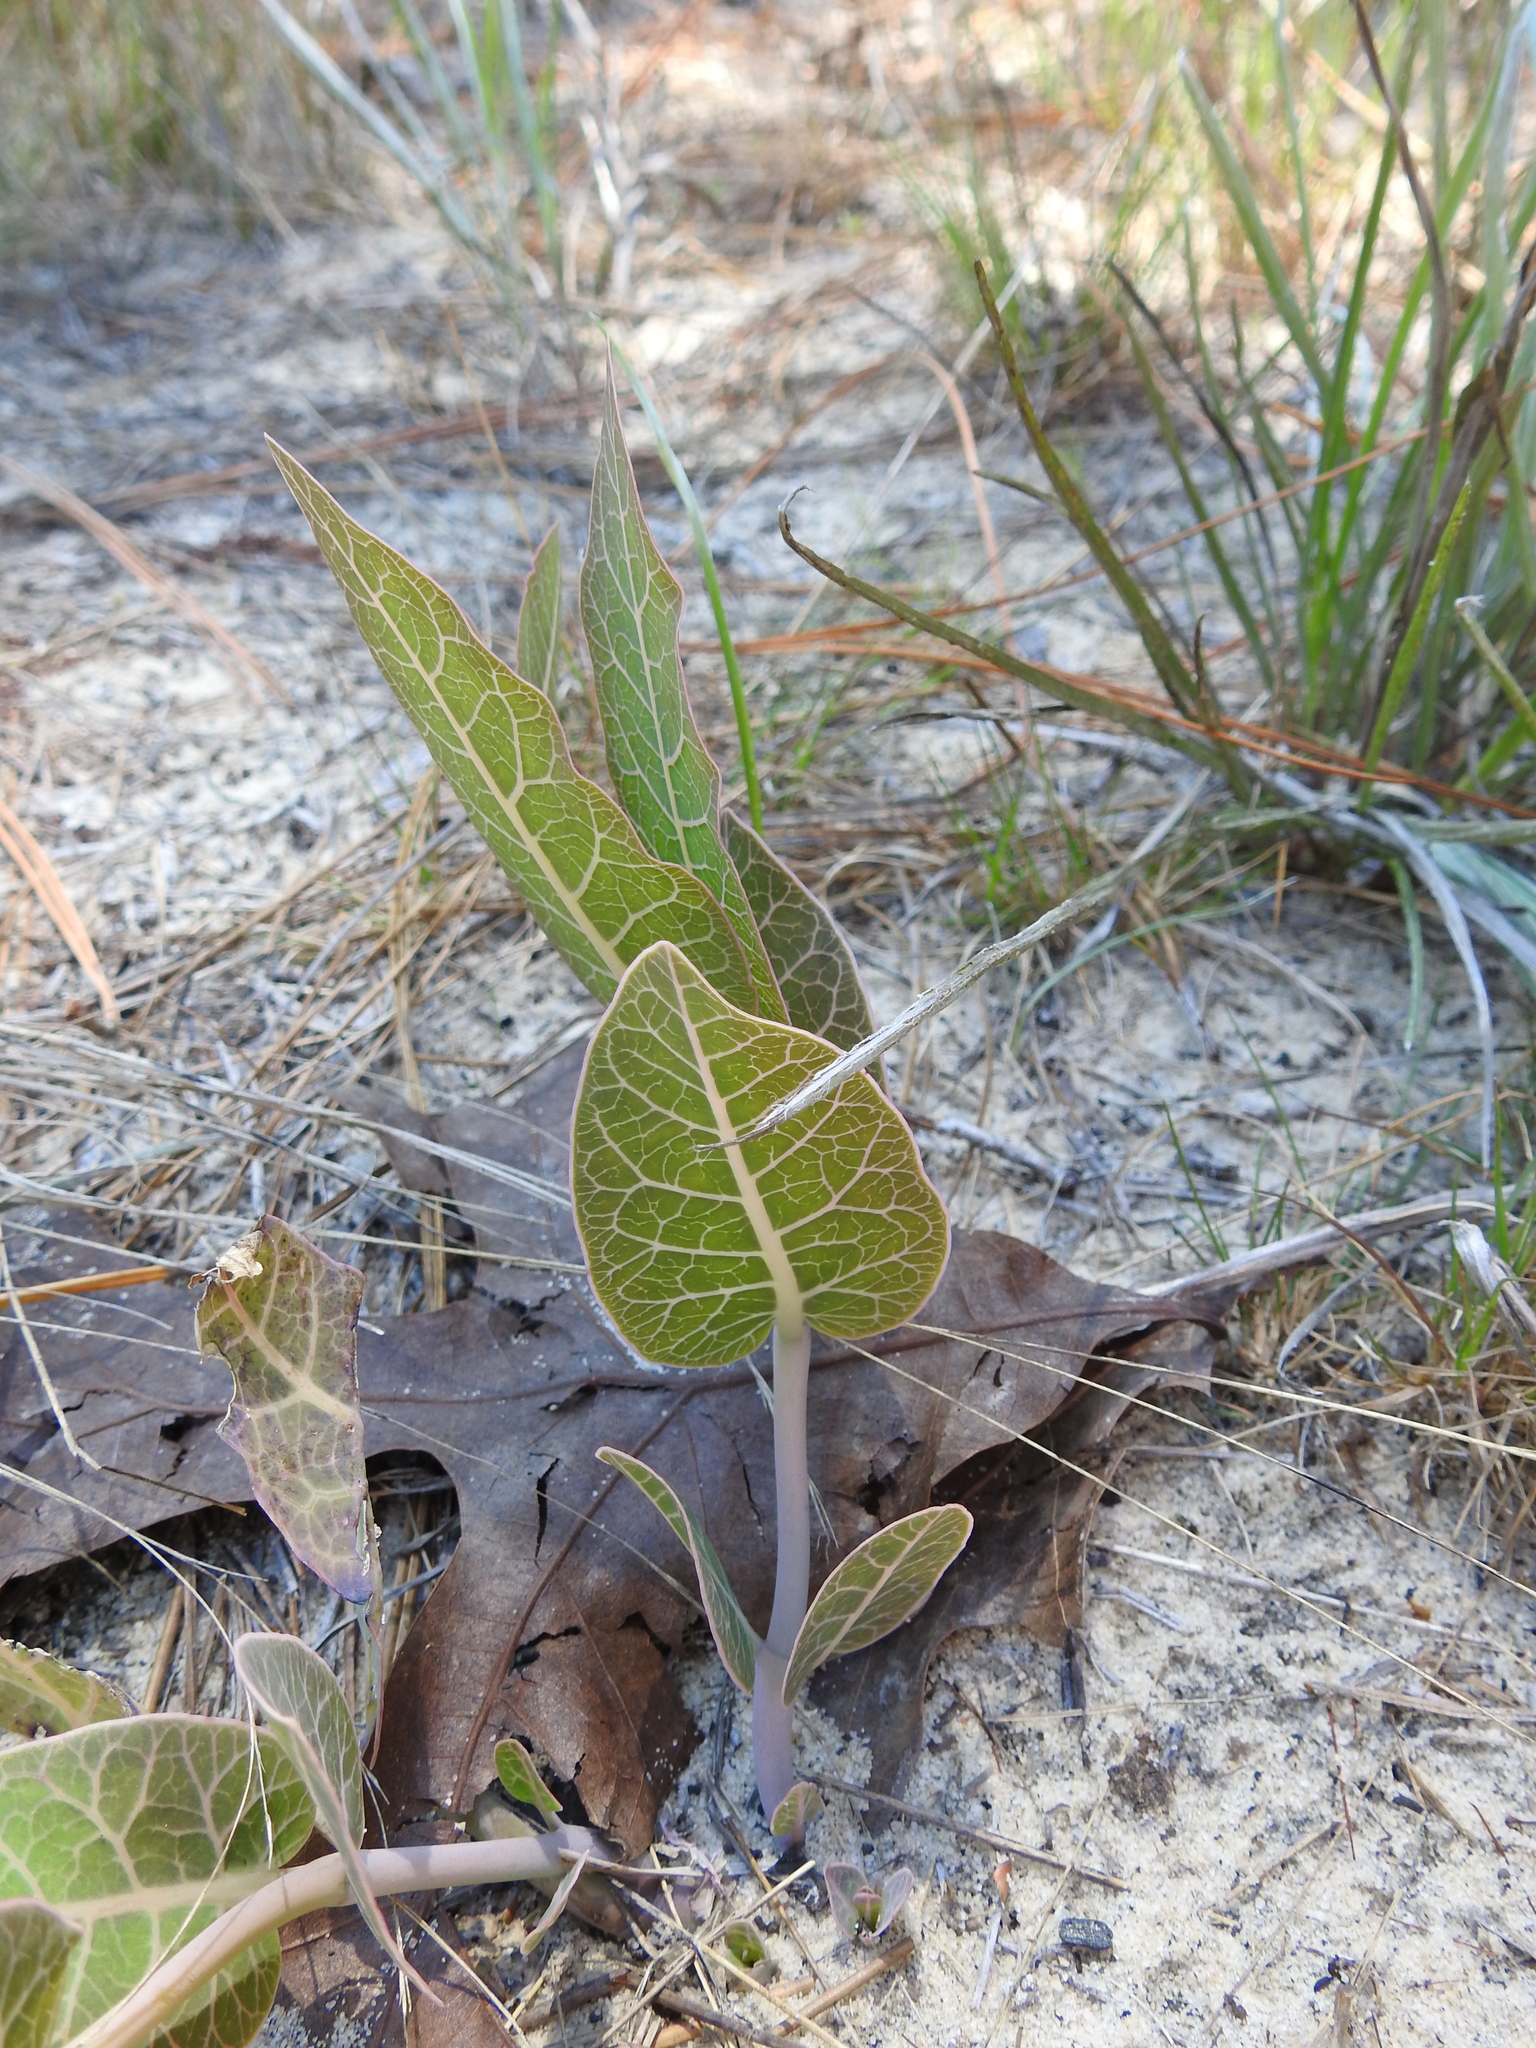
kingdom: Plantae
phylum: Tracheophyta
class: Magnoliopsida
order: Gentianales
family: Apocynaceae
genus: Asclepias
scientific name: Asclepias humistrata
